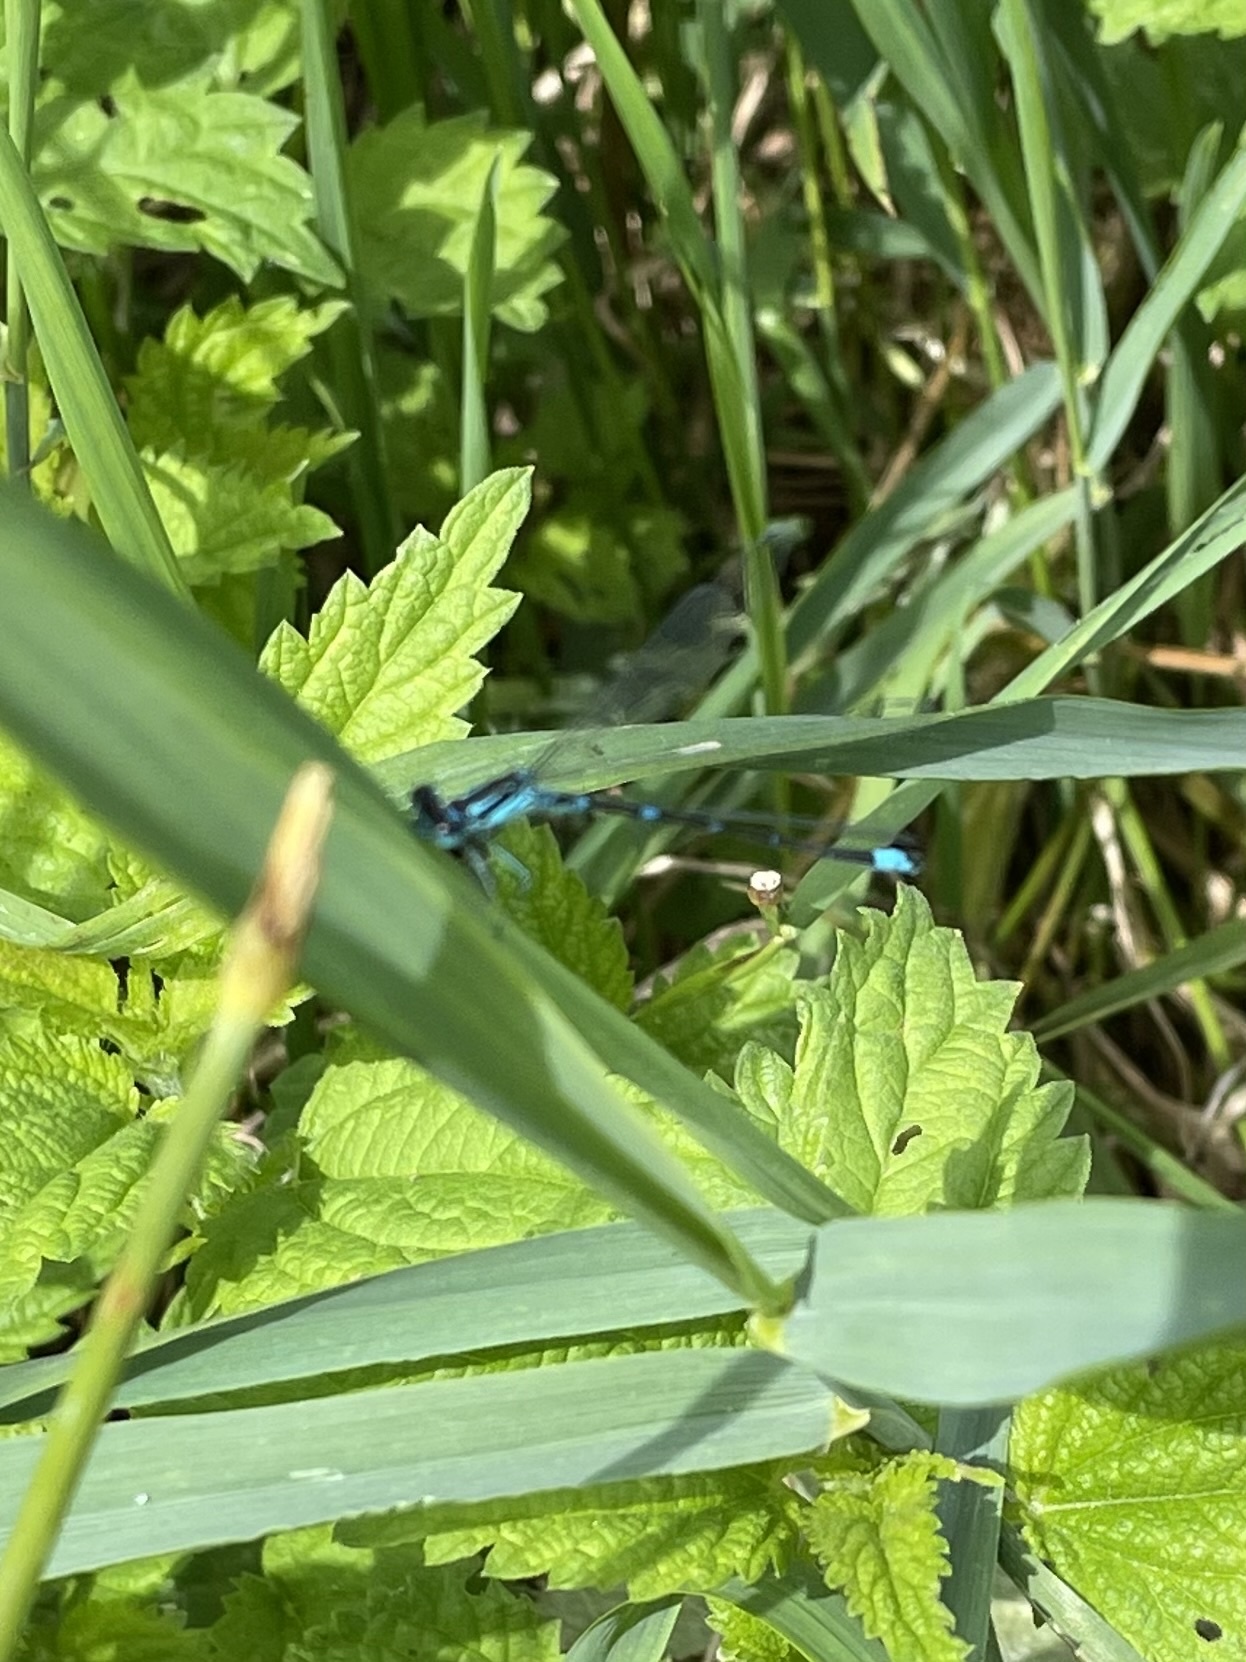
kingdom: Animalia
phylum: Arthropoda
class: Insecta
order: Odonata
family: Coenagrionidae
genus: Coenagrion
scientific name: Coenagrion pulchellum
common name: Variable bluet
